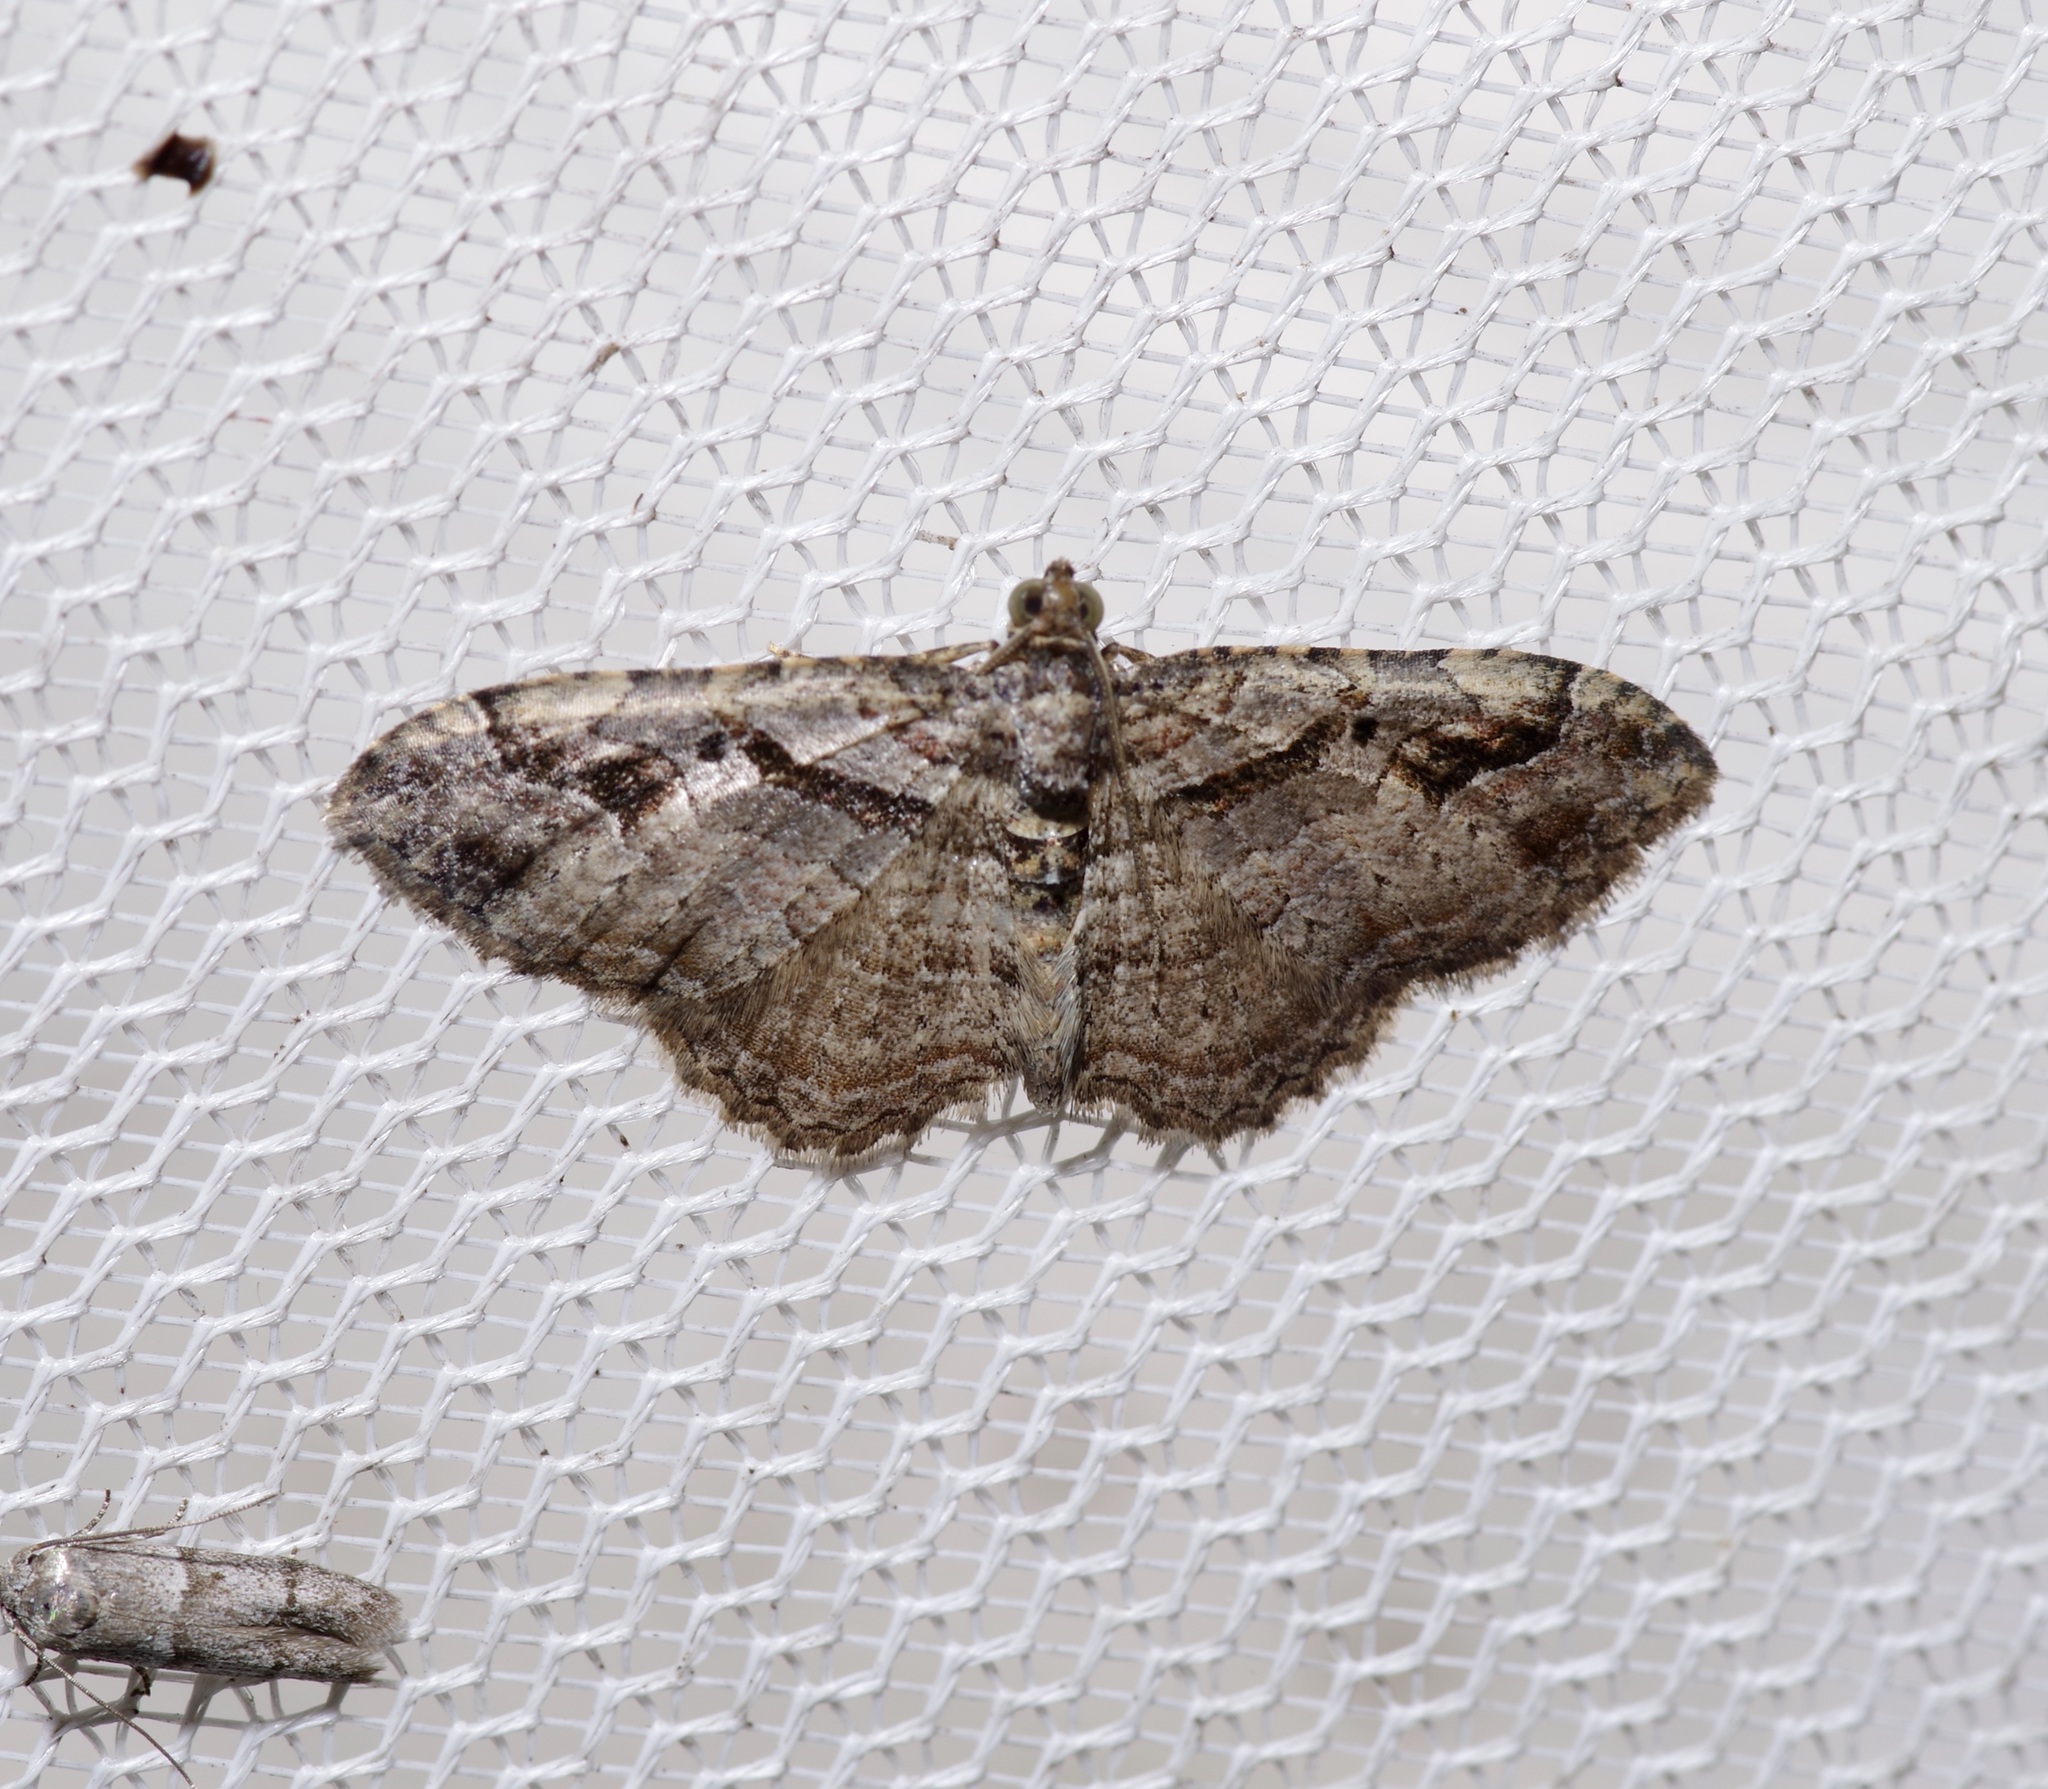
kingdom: Animalia
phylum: Arthropoda
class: Insecta
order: Lepidoptera
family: Geometridae
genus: Costaconvexa
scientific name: Costaconvexa centrostrigaria
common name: Bent-line carpet
